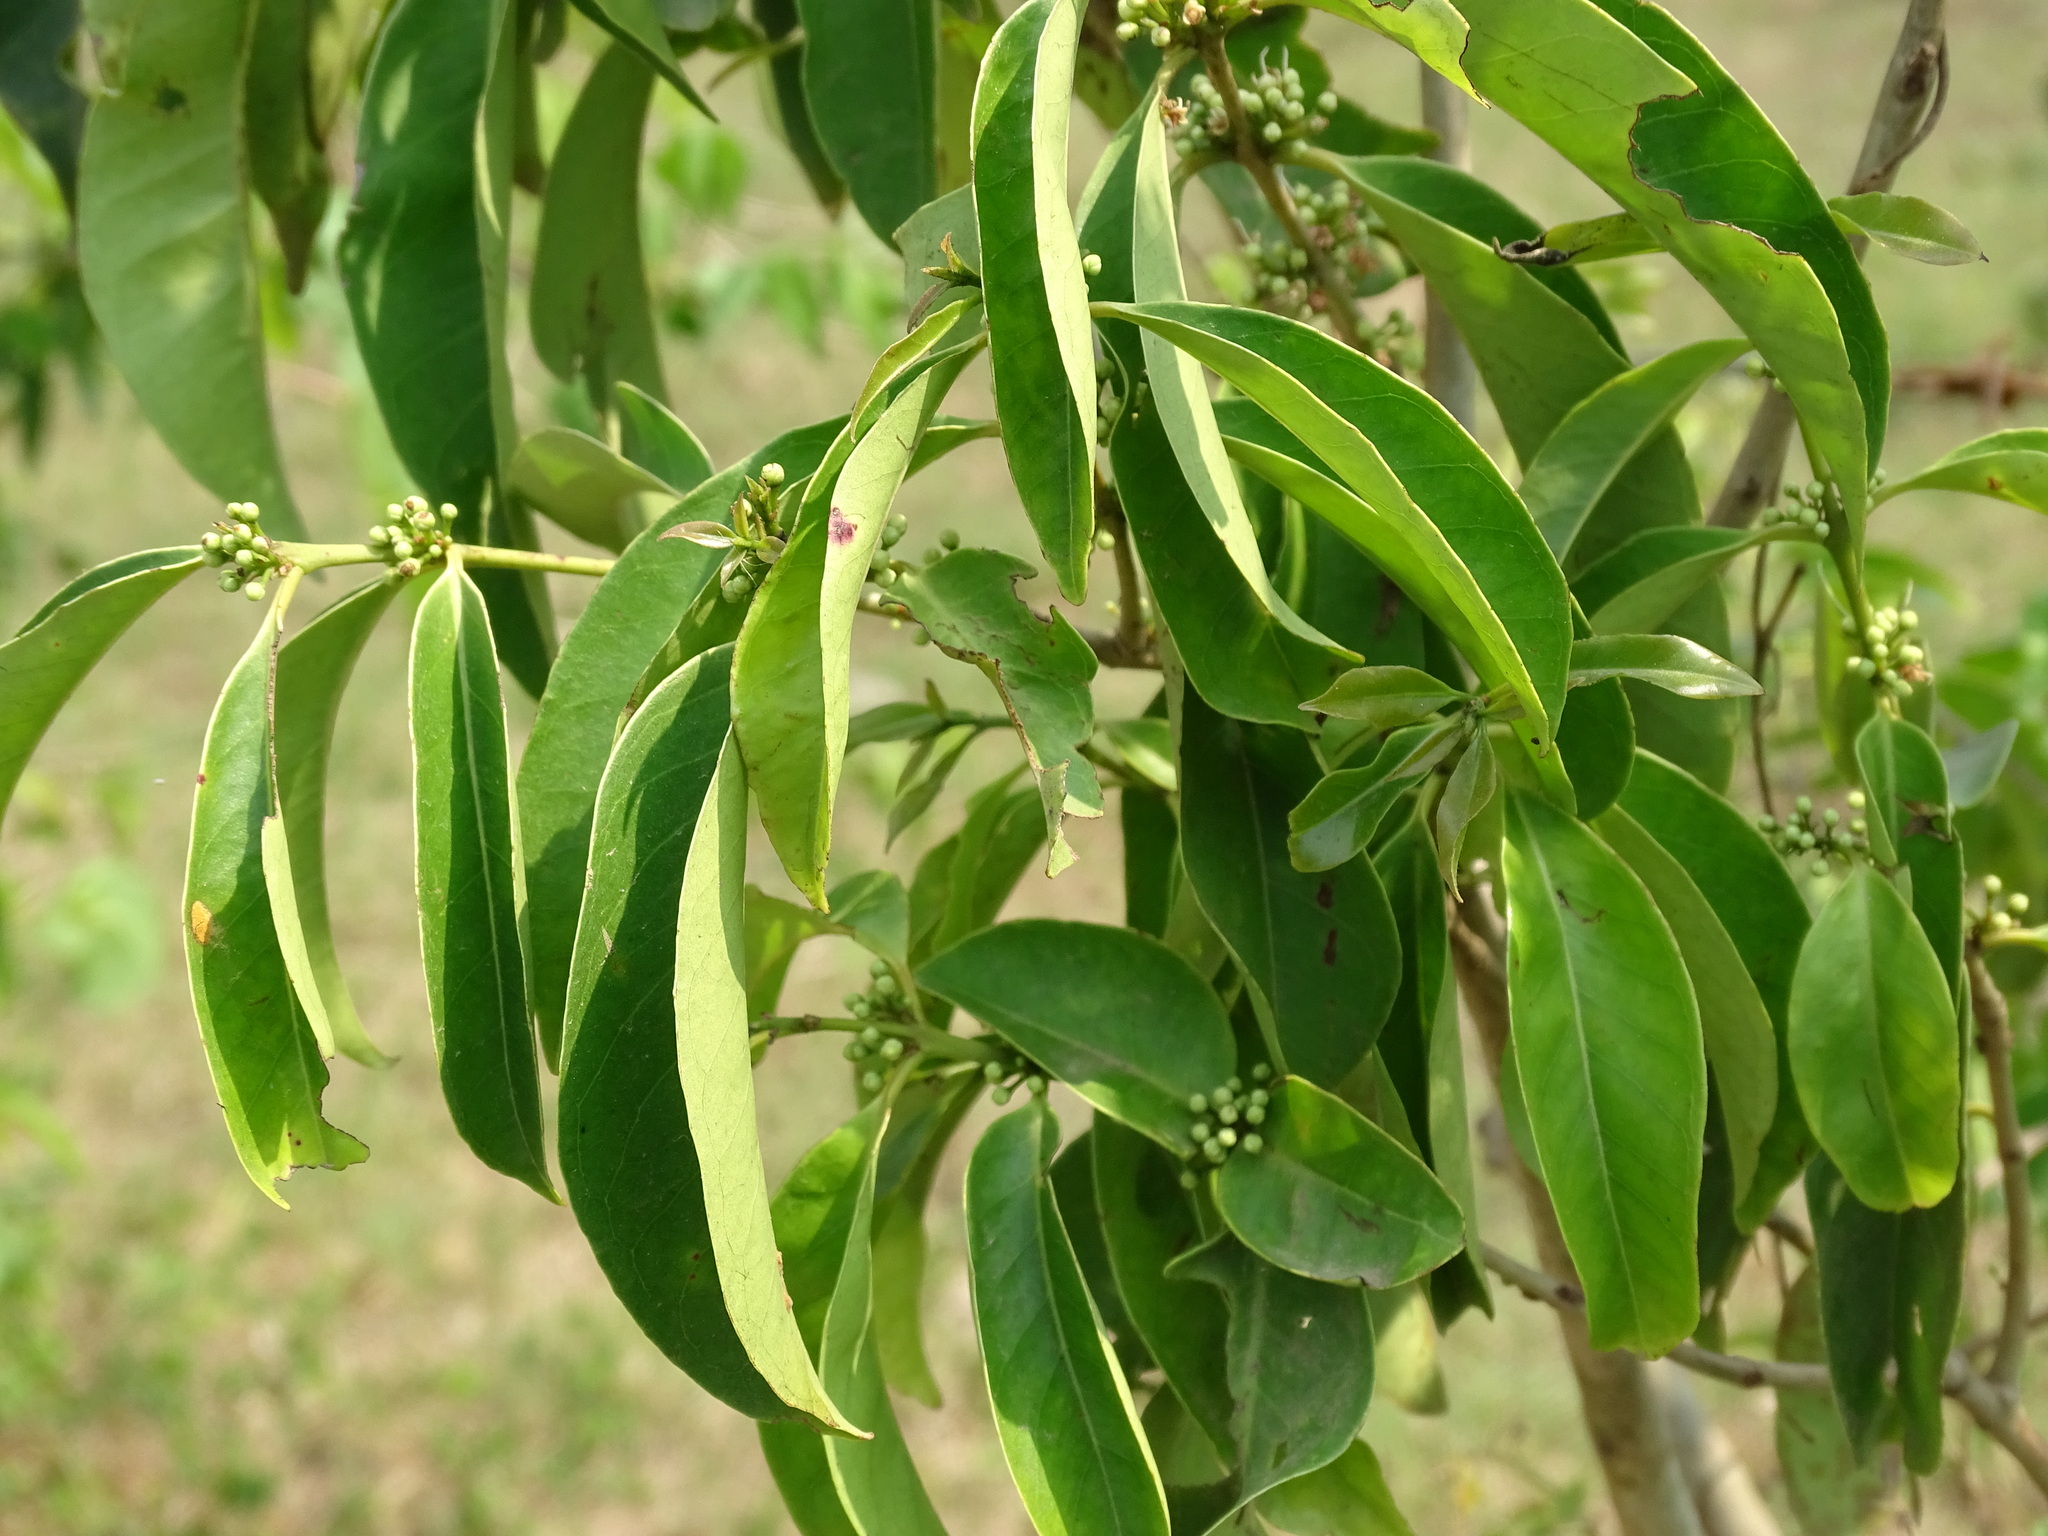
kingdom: Plantae
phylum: Tracheophyta
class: Magnoliopsida
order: Myrtales
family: Myrtaceae
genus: Eugenia
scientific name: Eugenia choapamensis
